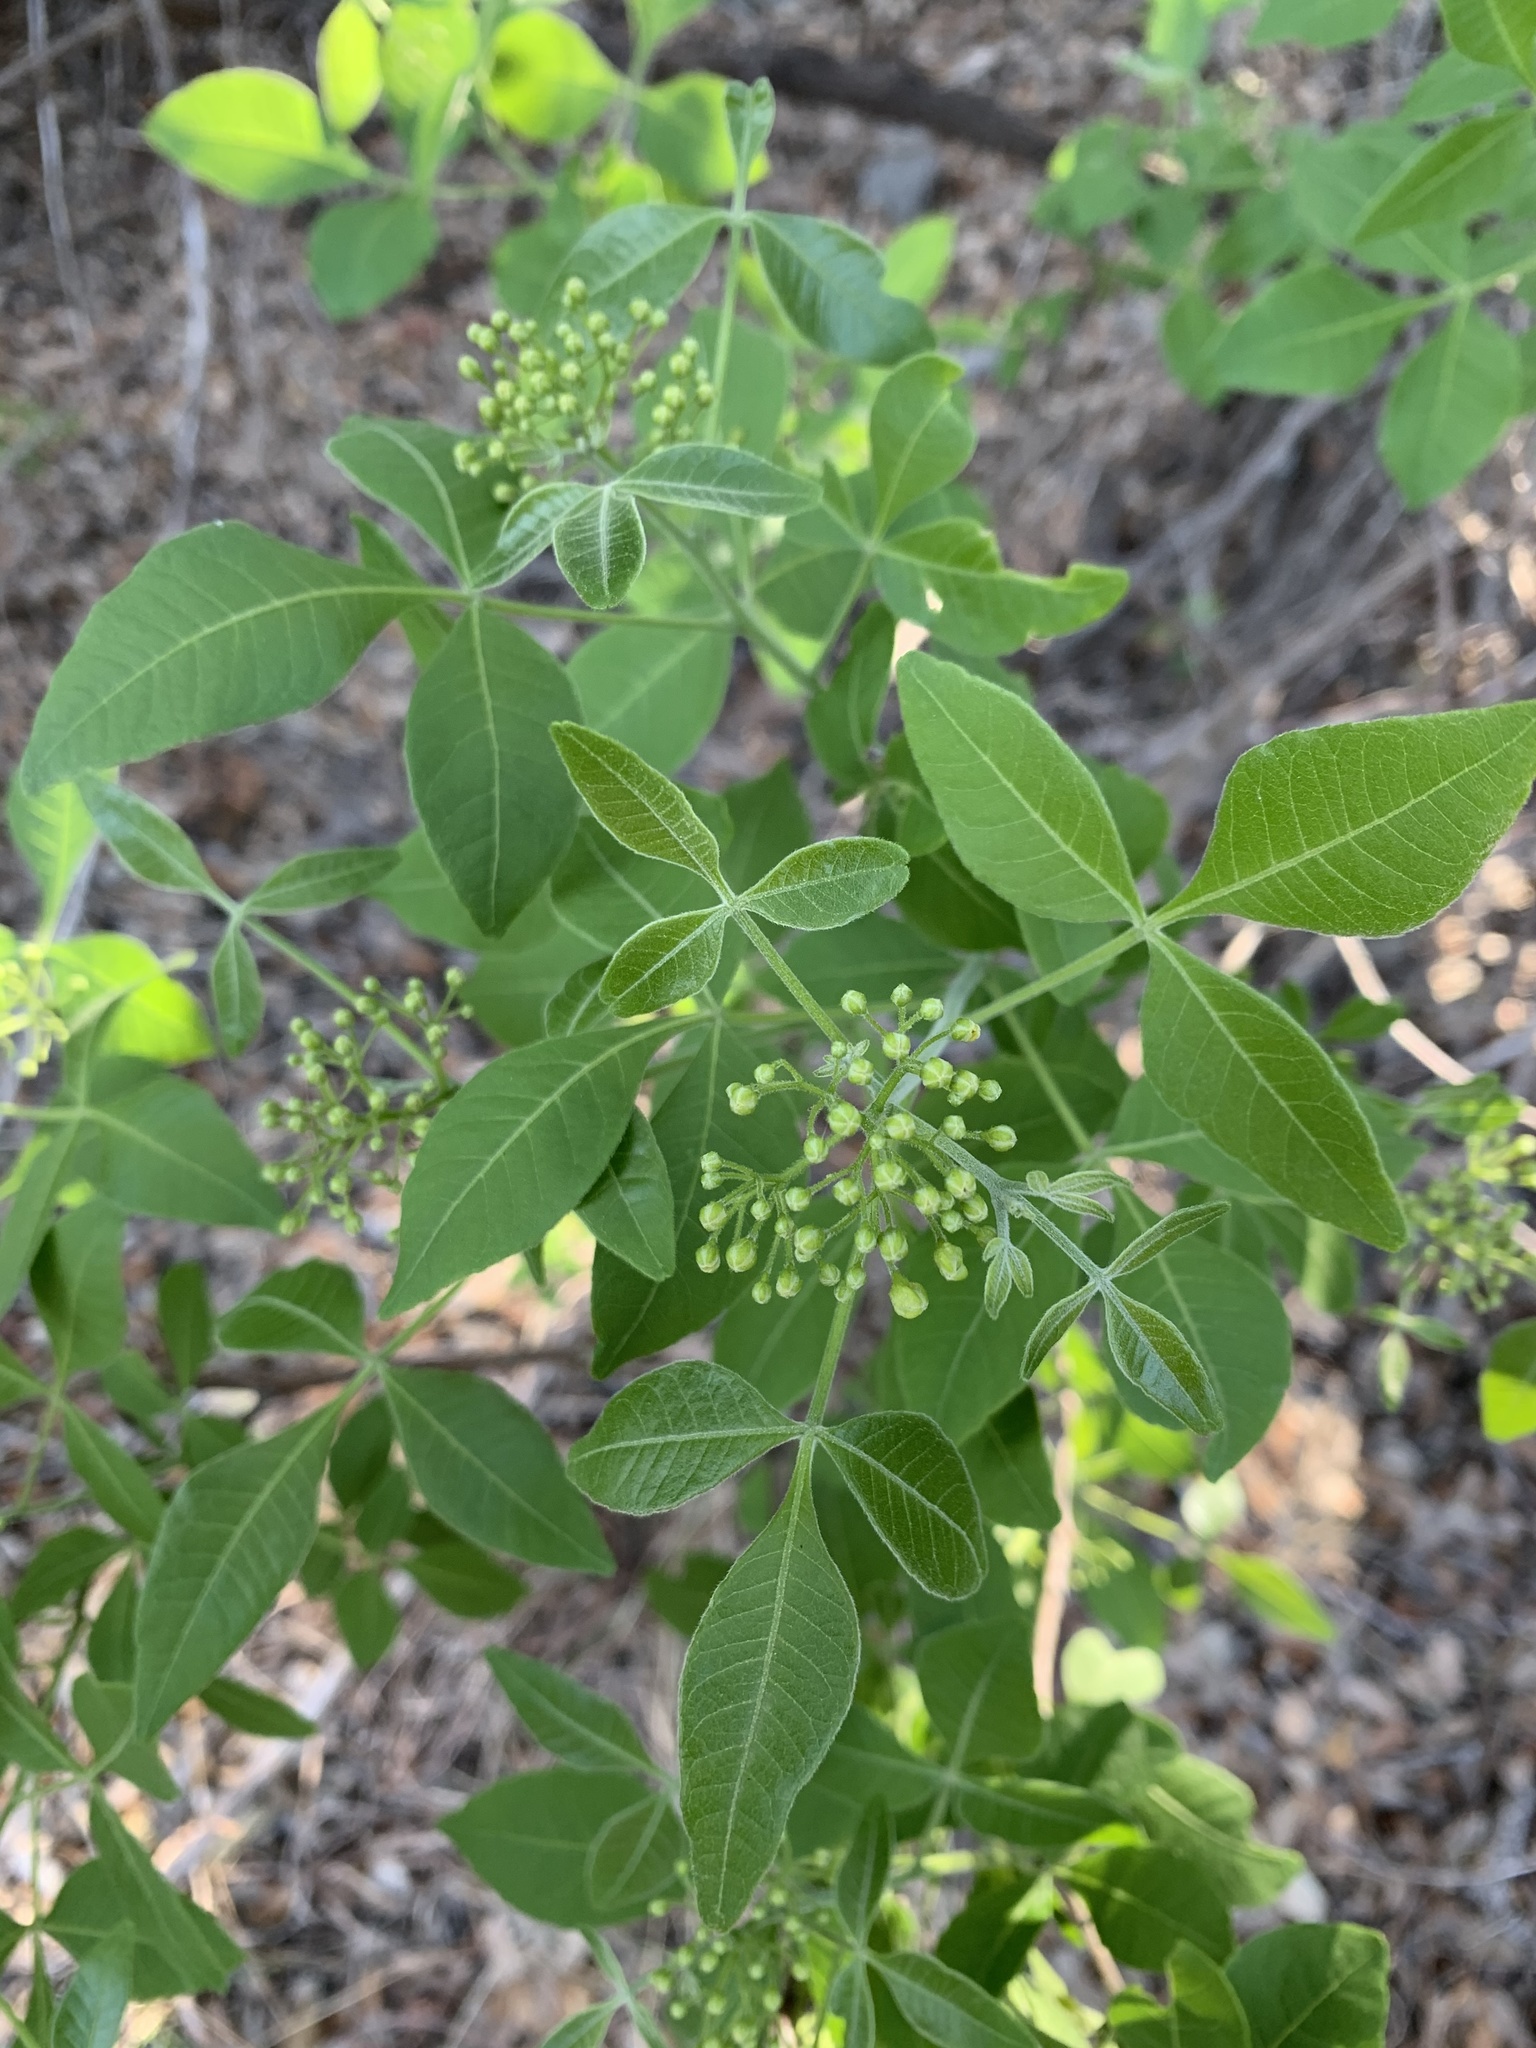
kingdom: Plantae
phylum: Tracheophyta
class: Magnoliopsida
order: Sapindales
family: Rutaceae
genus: Ptelea
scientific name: Ptelea trifoliata
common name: Common hop-tree
